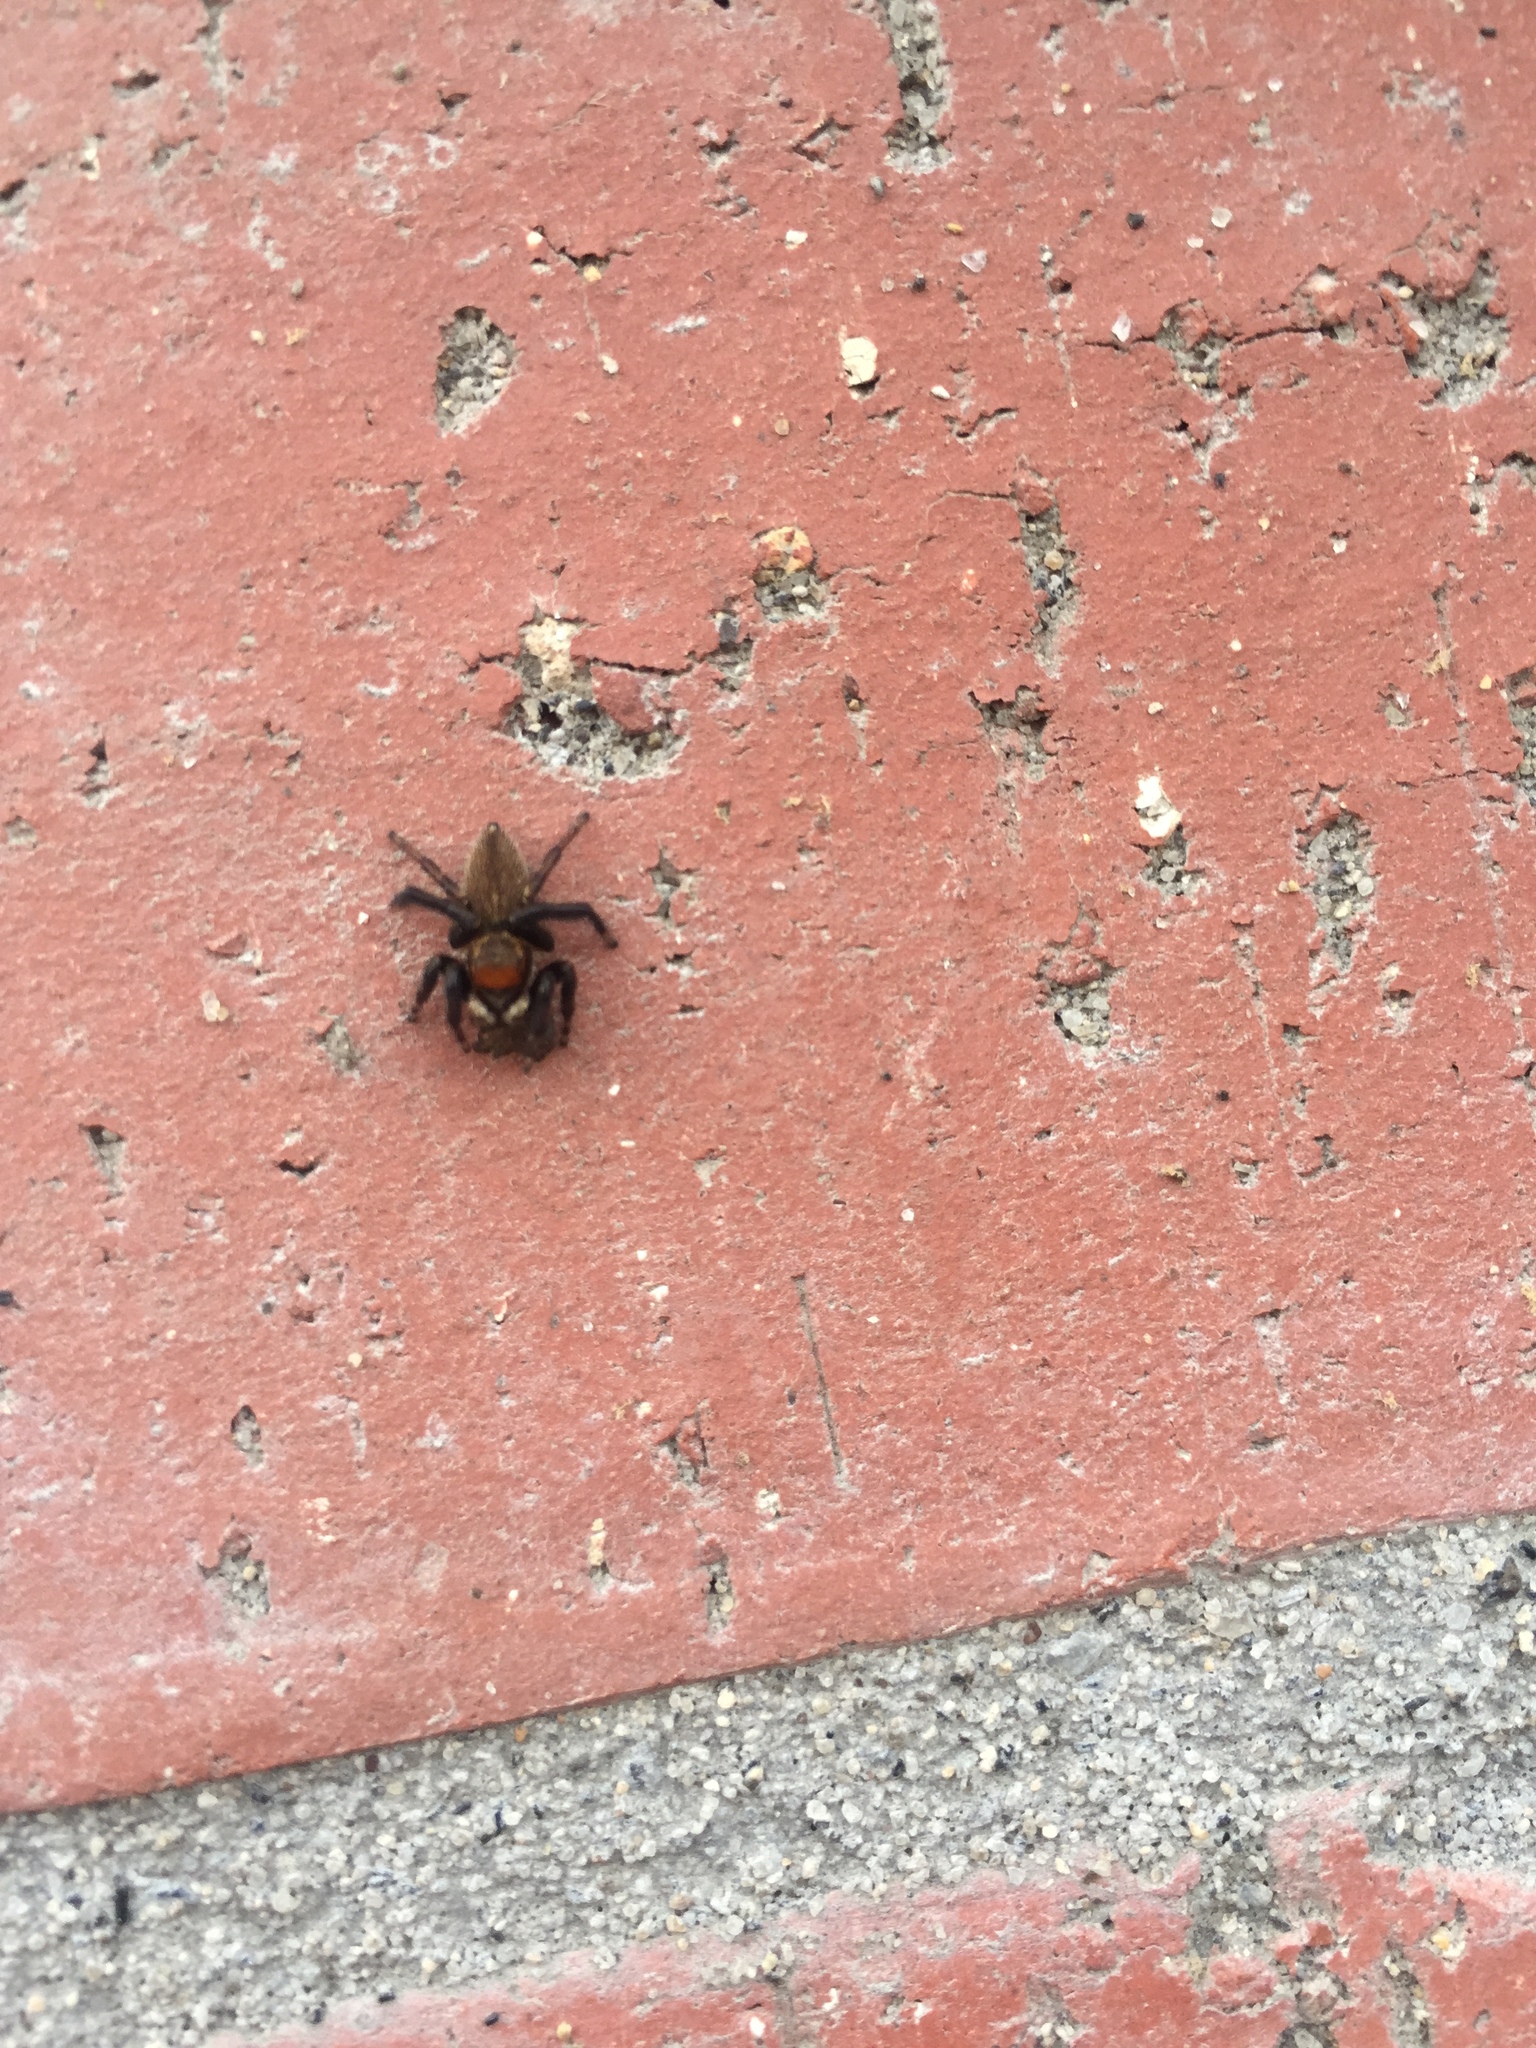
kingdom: Animalia
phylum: Arthropoda
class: Arachnida
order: Araneae
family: Salticidae
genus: Maratus
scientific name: Maratus griseus
